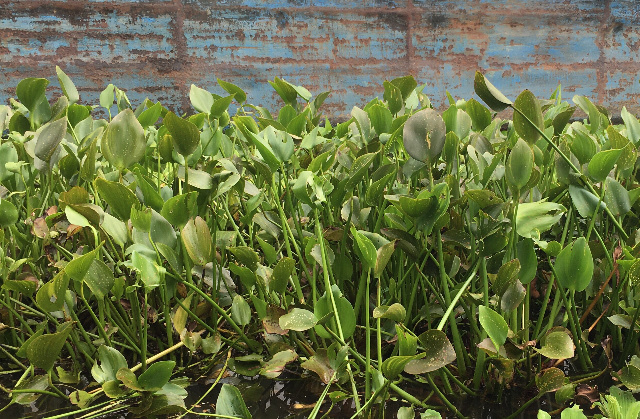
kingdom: Plantae
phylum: Tracheophyta
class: Liliopsida
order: Commelinales
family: Pontederiaceae
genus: Pontederia
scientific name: Pontederia crassipes
